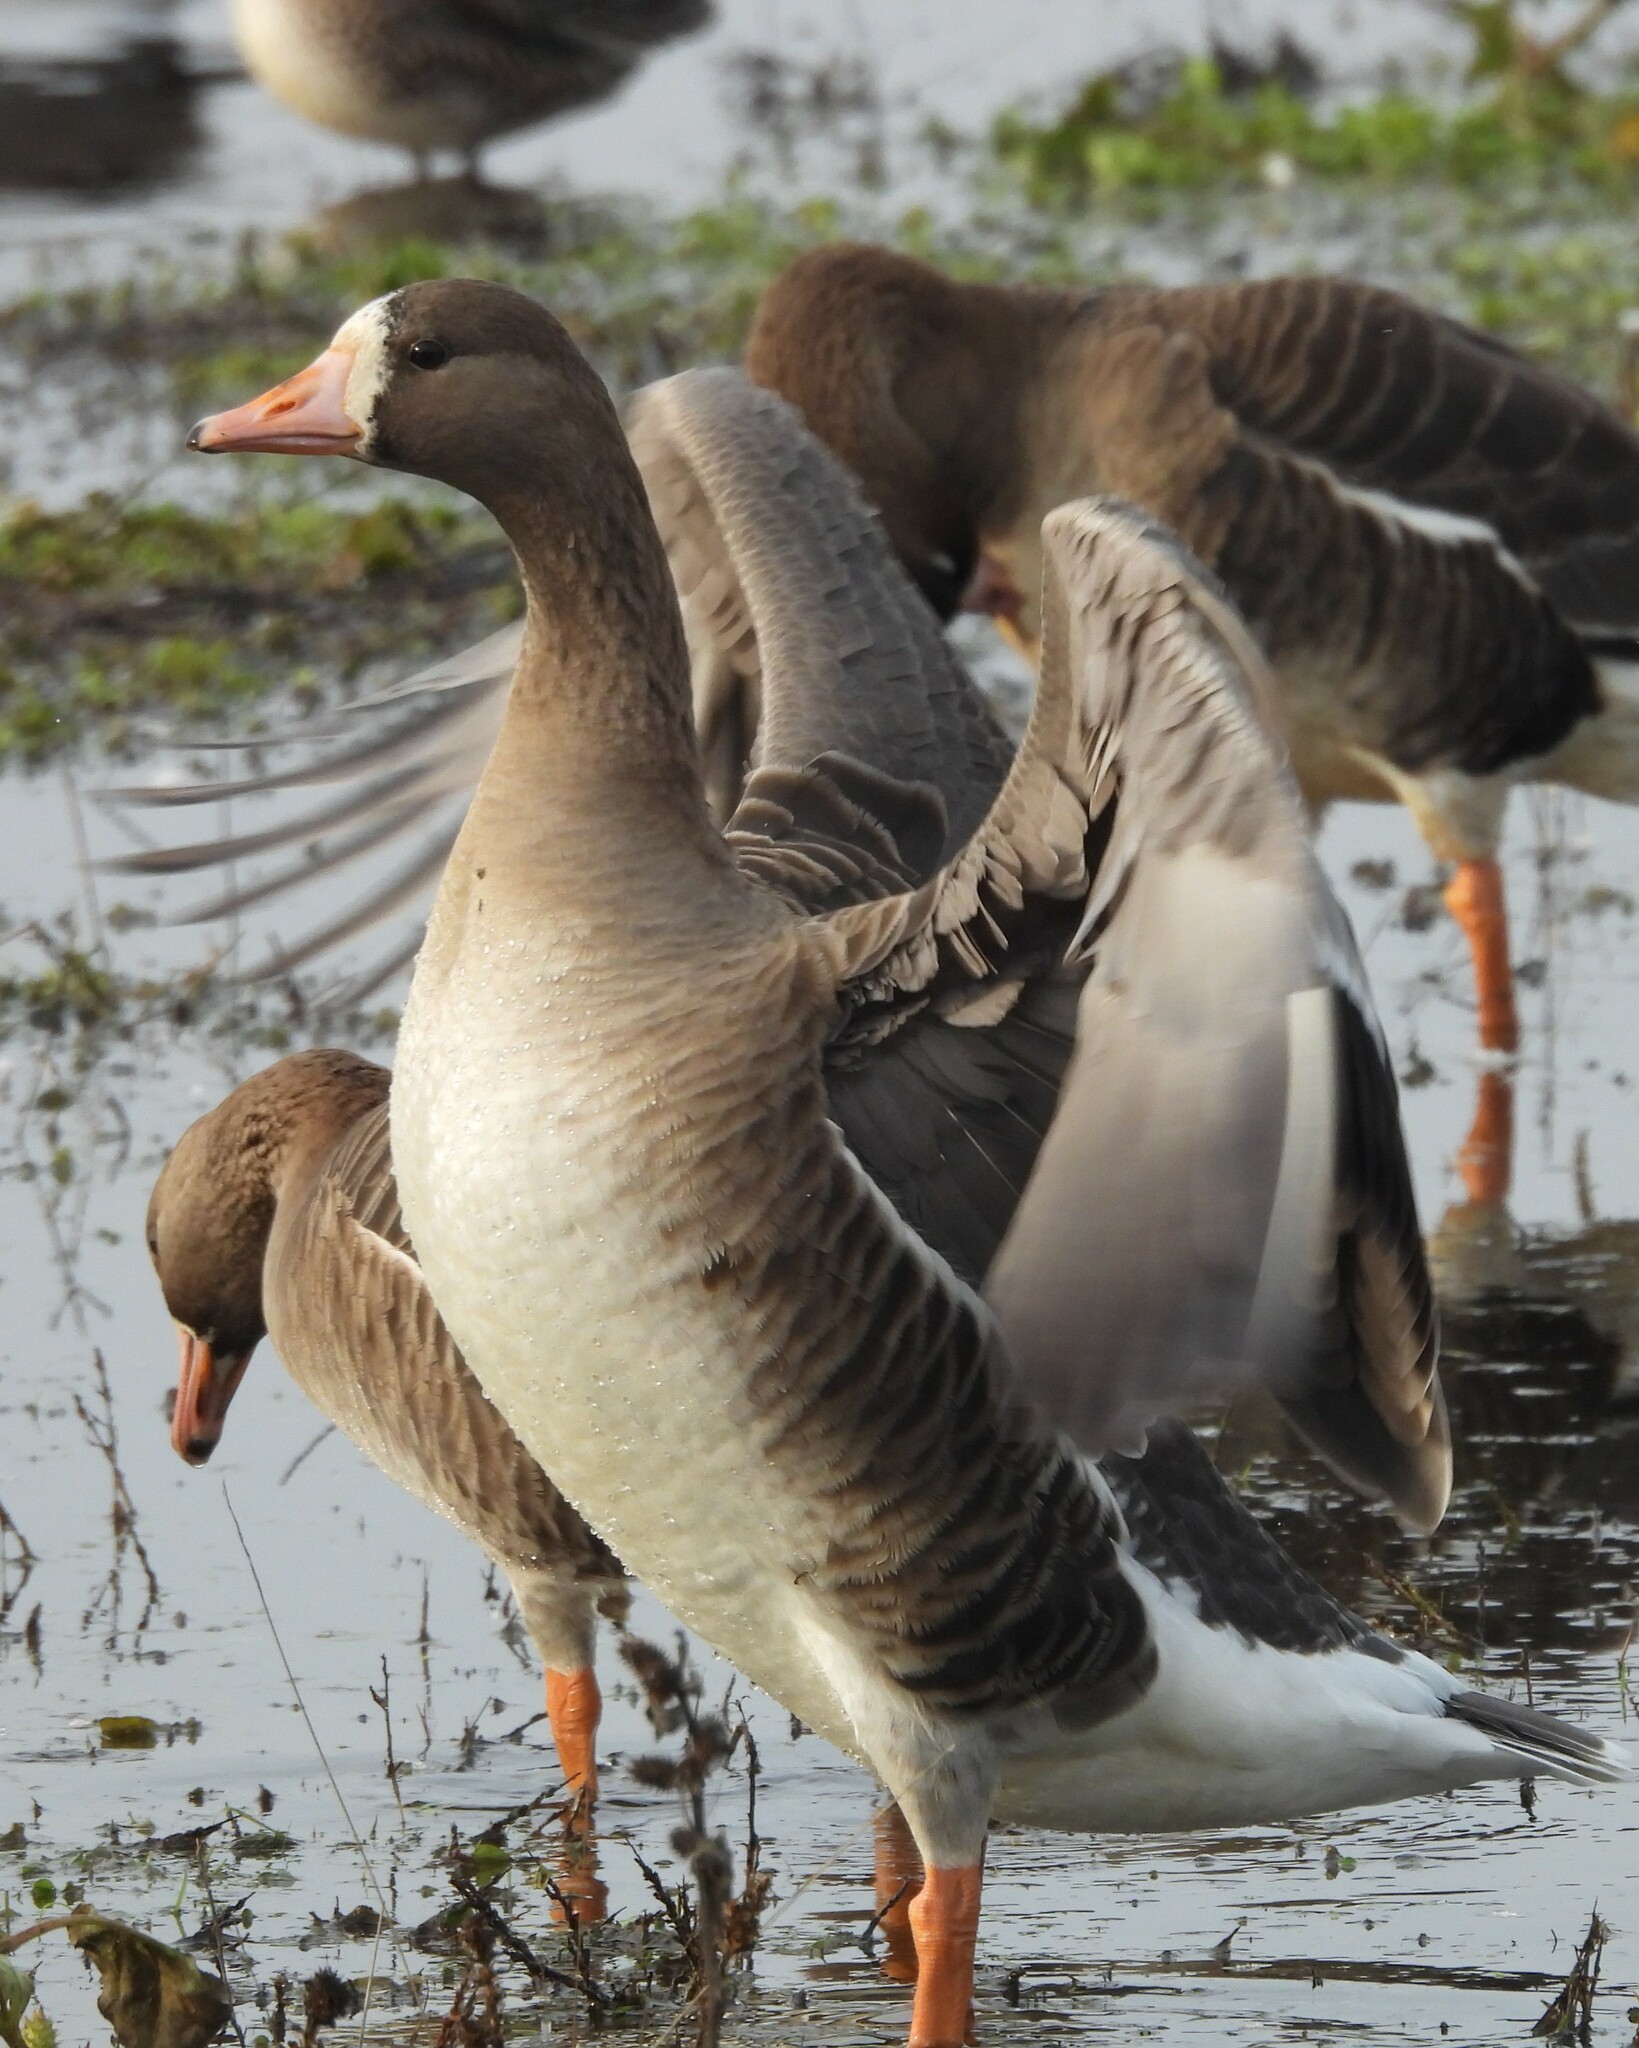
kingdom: Animalia
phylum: Chordata
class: Aves
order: Anseriformes
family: Anatidae
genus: Anser
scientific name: Anser albifrons
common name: Greater white-fronted goose
